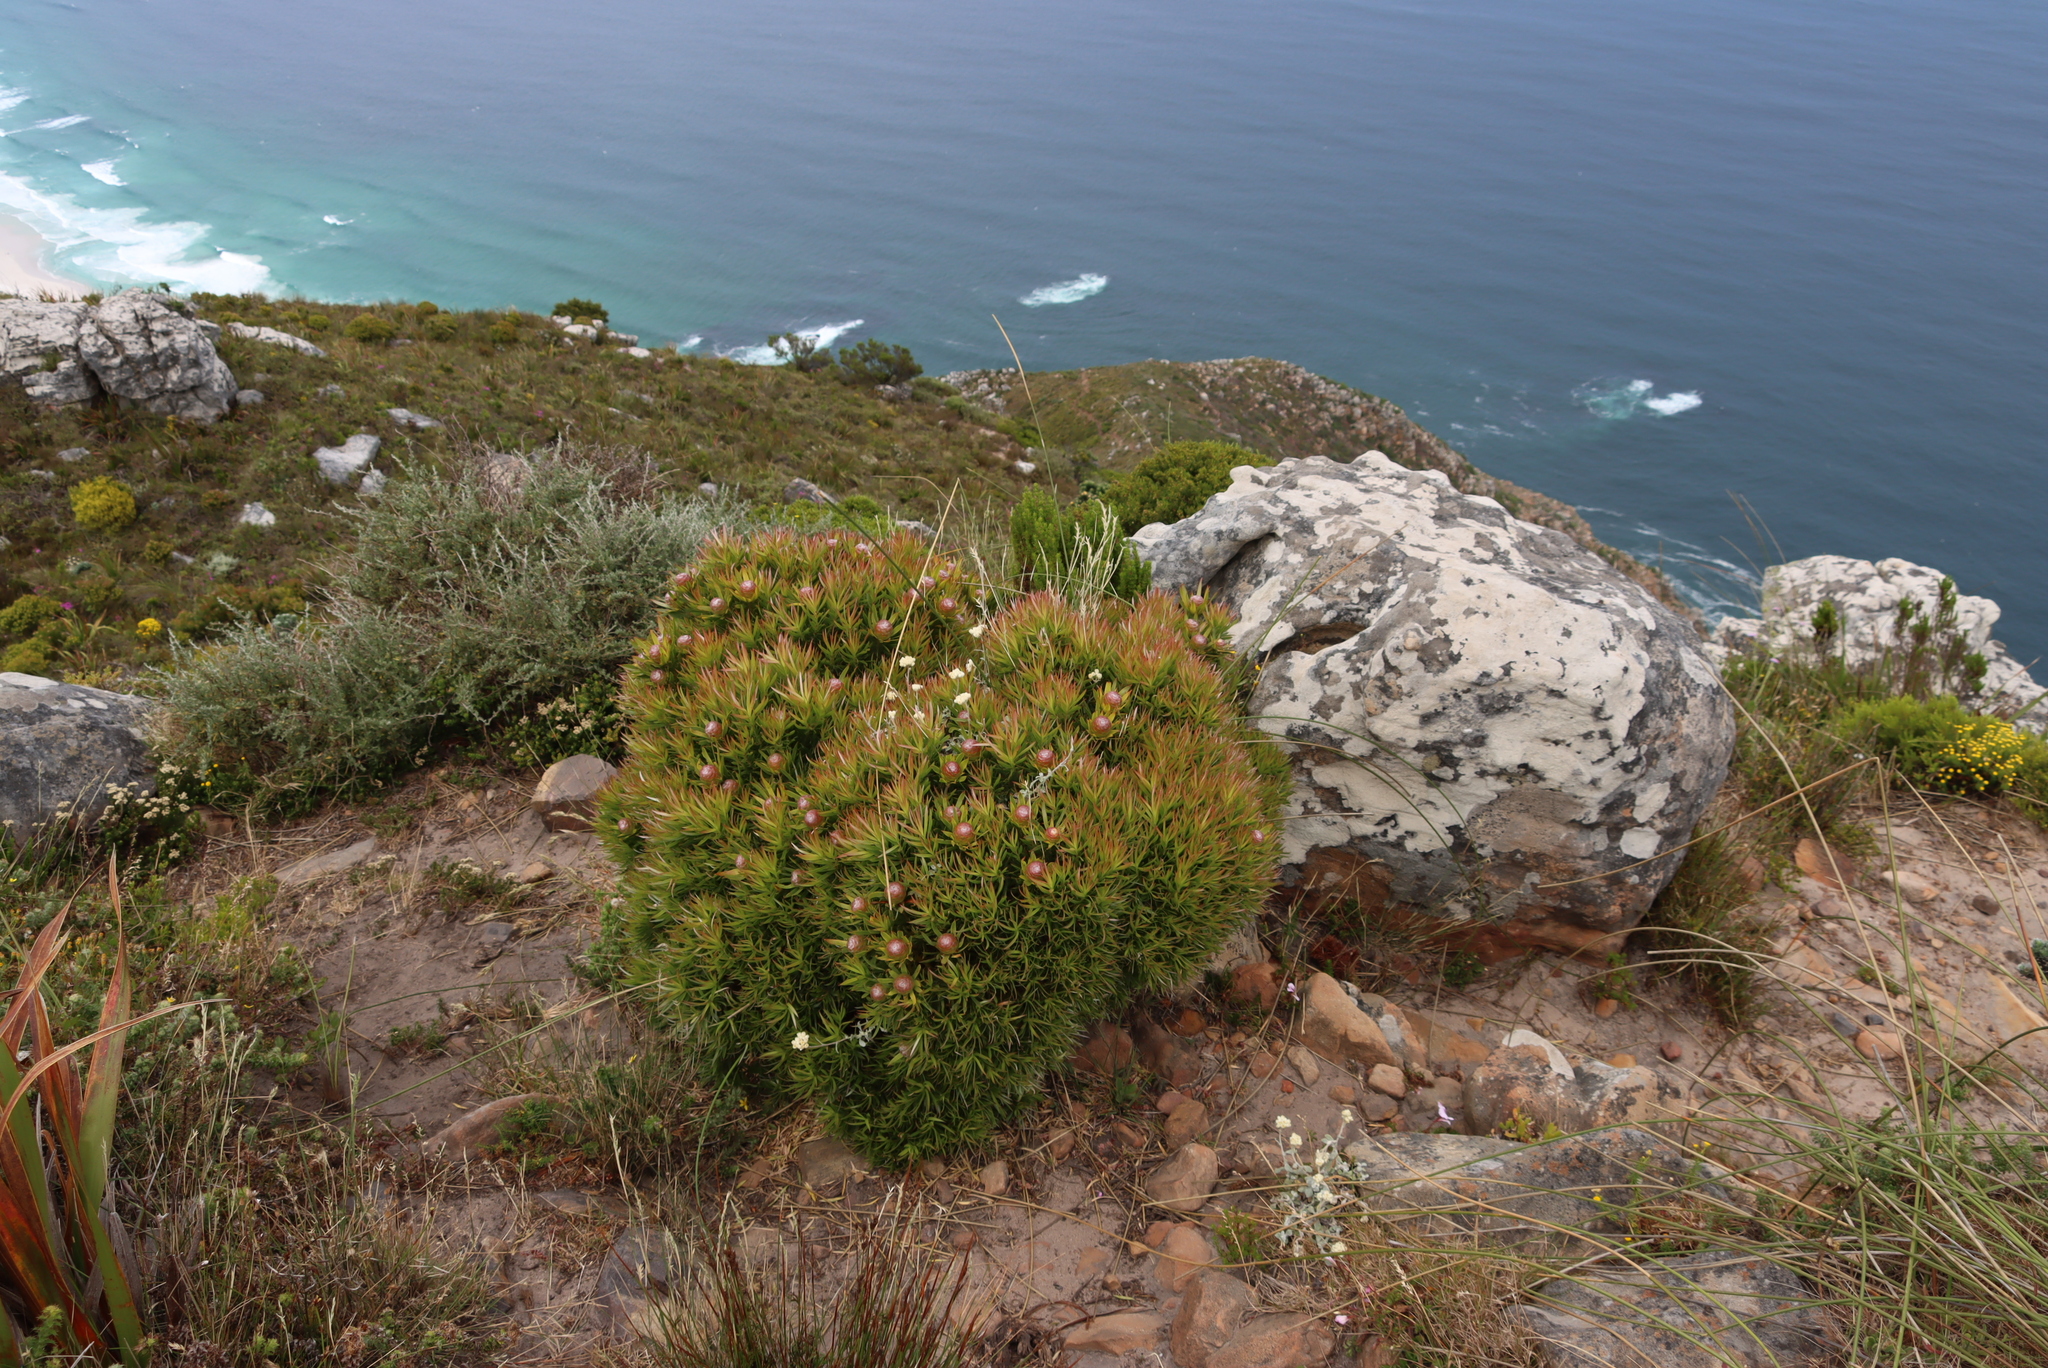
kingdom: Plantae
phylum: Tracheophyta
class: Magnoliopsida
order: Proteales
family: Proteaceae
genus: Leucadendron
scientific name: Leucadendron xanthoconus
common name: Sickle-leaf conebush
